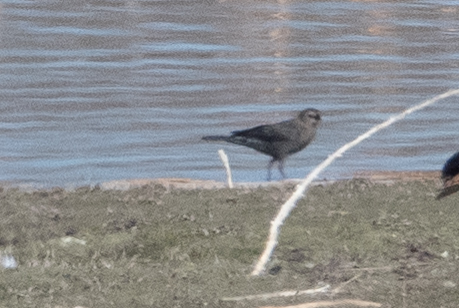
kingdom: Animalia
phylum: Chordata
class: Aves
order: Passeriformes
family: Icteridae
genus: Euphagus
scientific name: Euphagus cyanocephalus
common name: Brewer's blackbird
